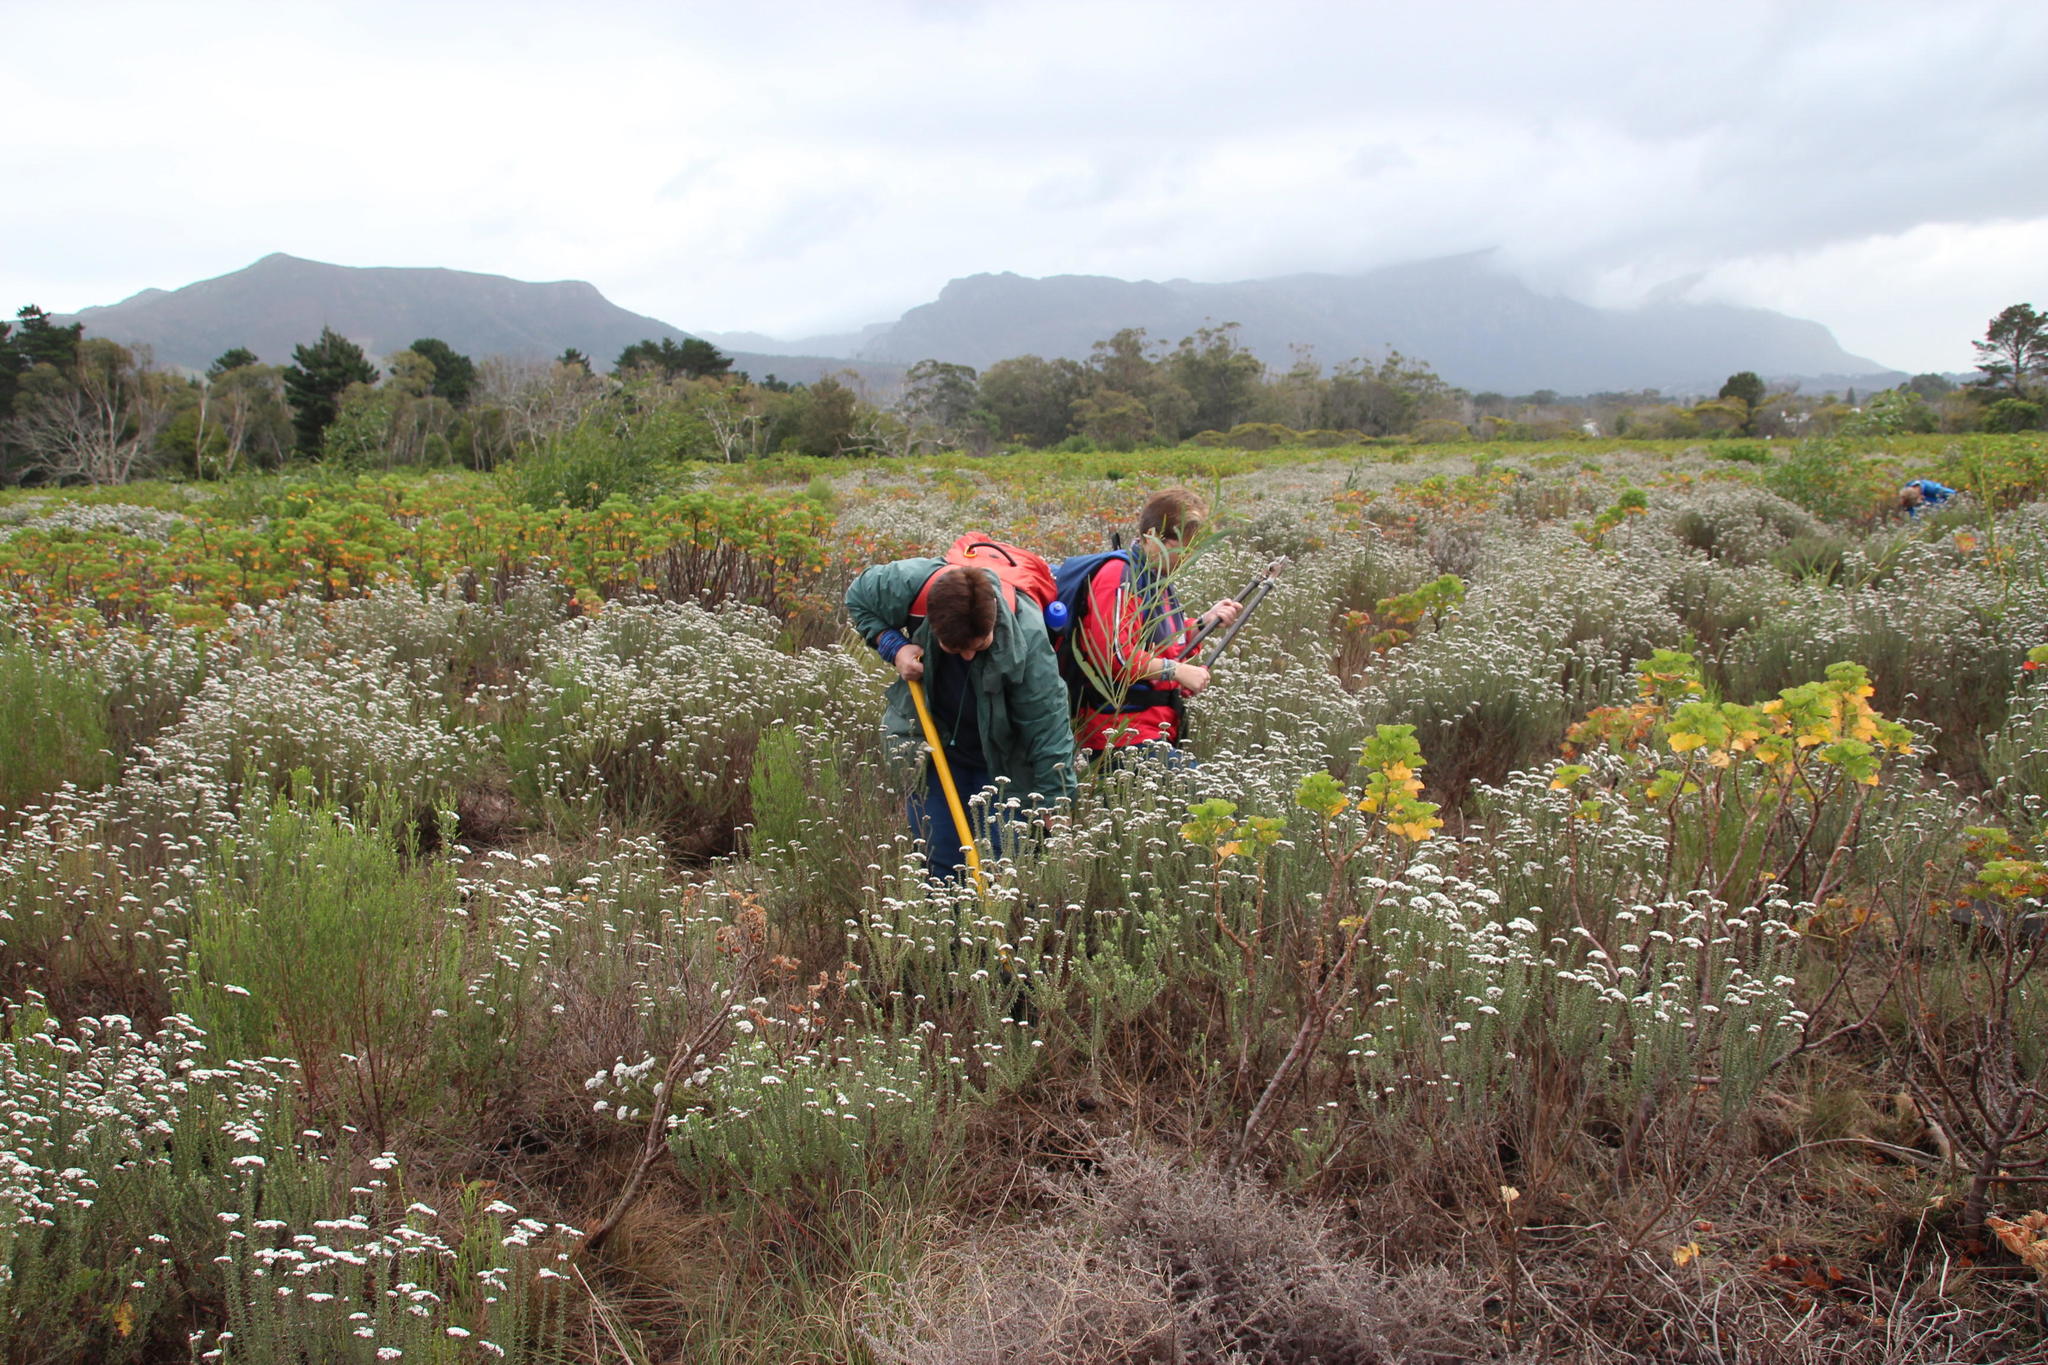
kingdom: Plantae
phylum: Tracheophyta
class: Magnoliopsida
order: Geraniales
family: Geraniaceae
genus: Pelargonium
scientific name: Pelargonium cucullatum
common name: Tree pelargonium
